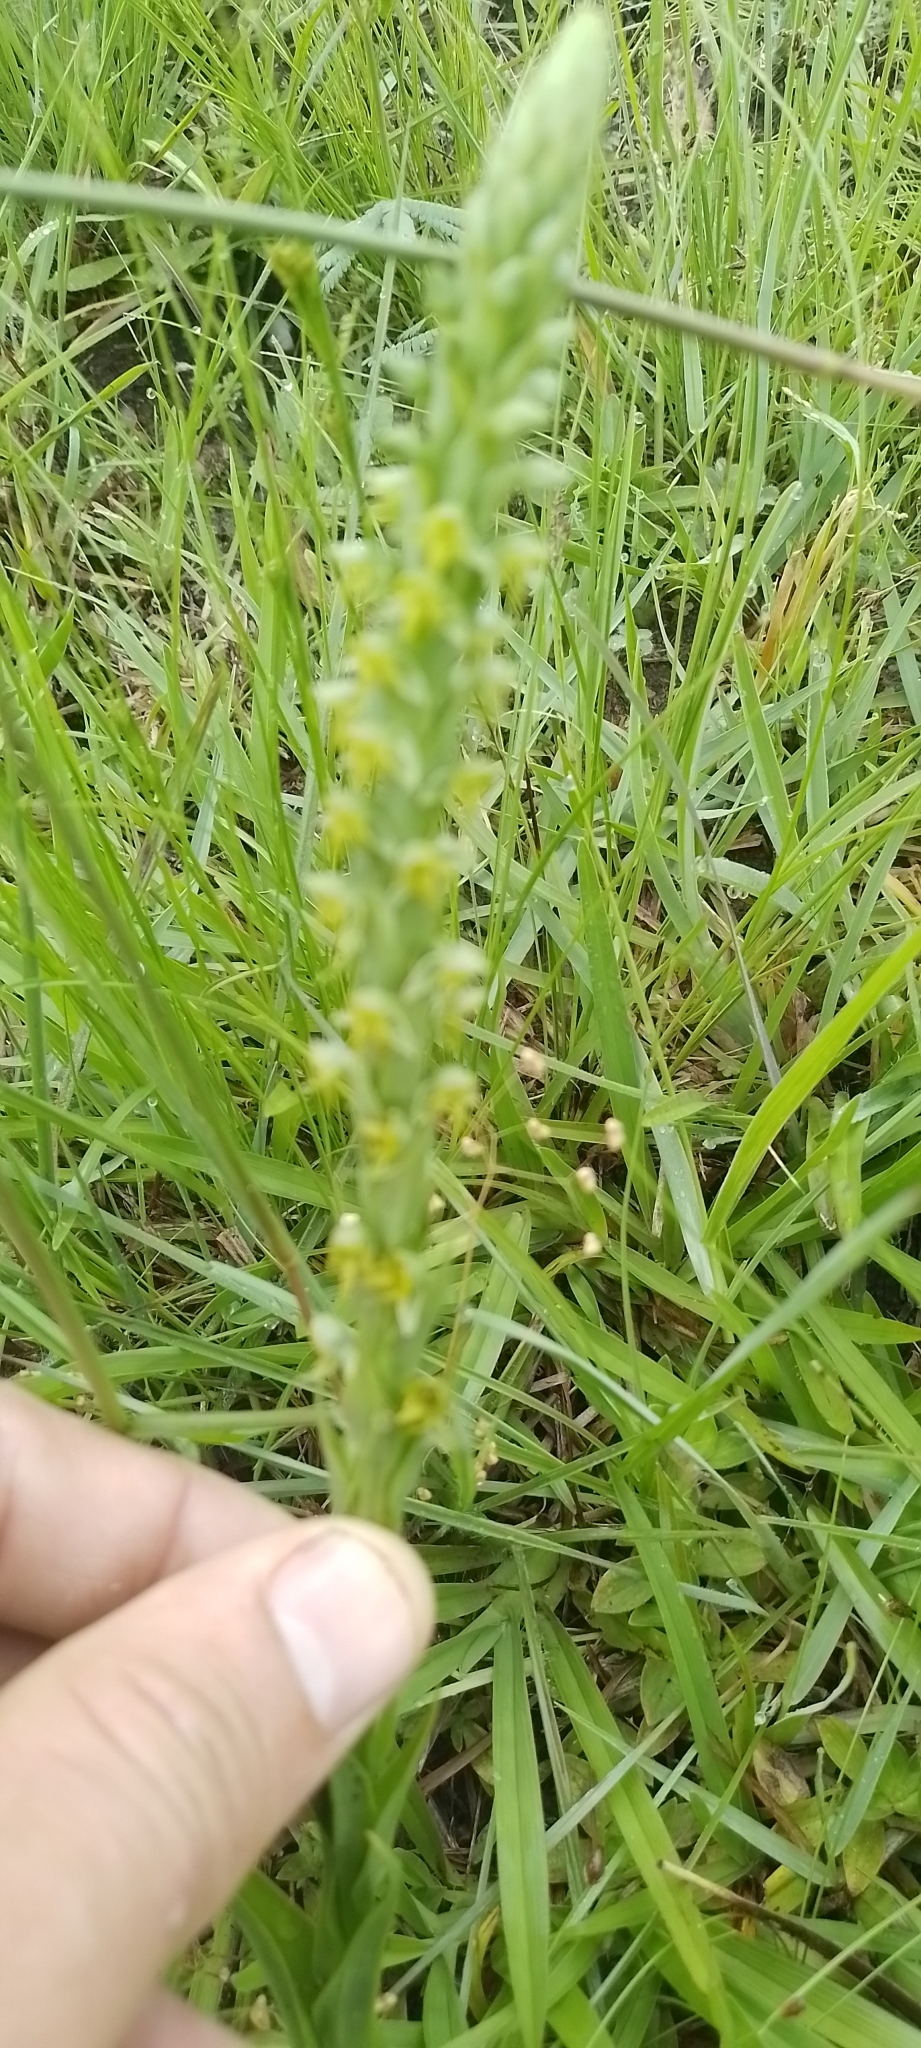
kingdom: Plantae
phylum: Tracheophyta
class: Liliopsida
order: Asparagales
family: Orchidaceae
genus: Habenaria
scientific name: Habenaria parviflora
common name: Small flowered habenaria
